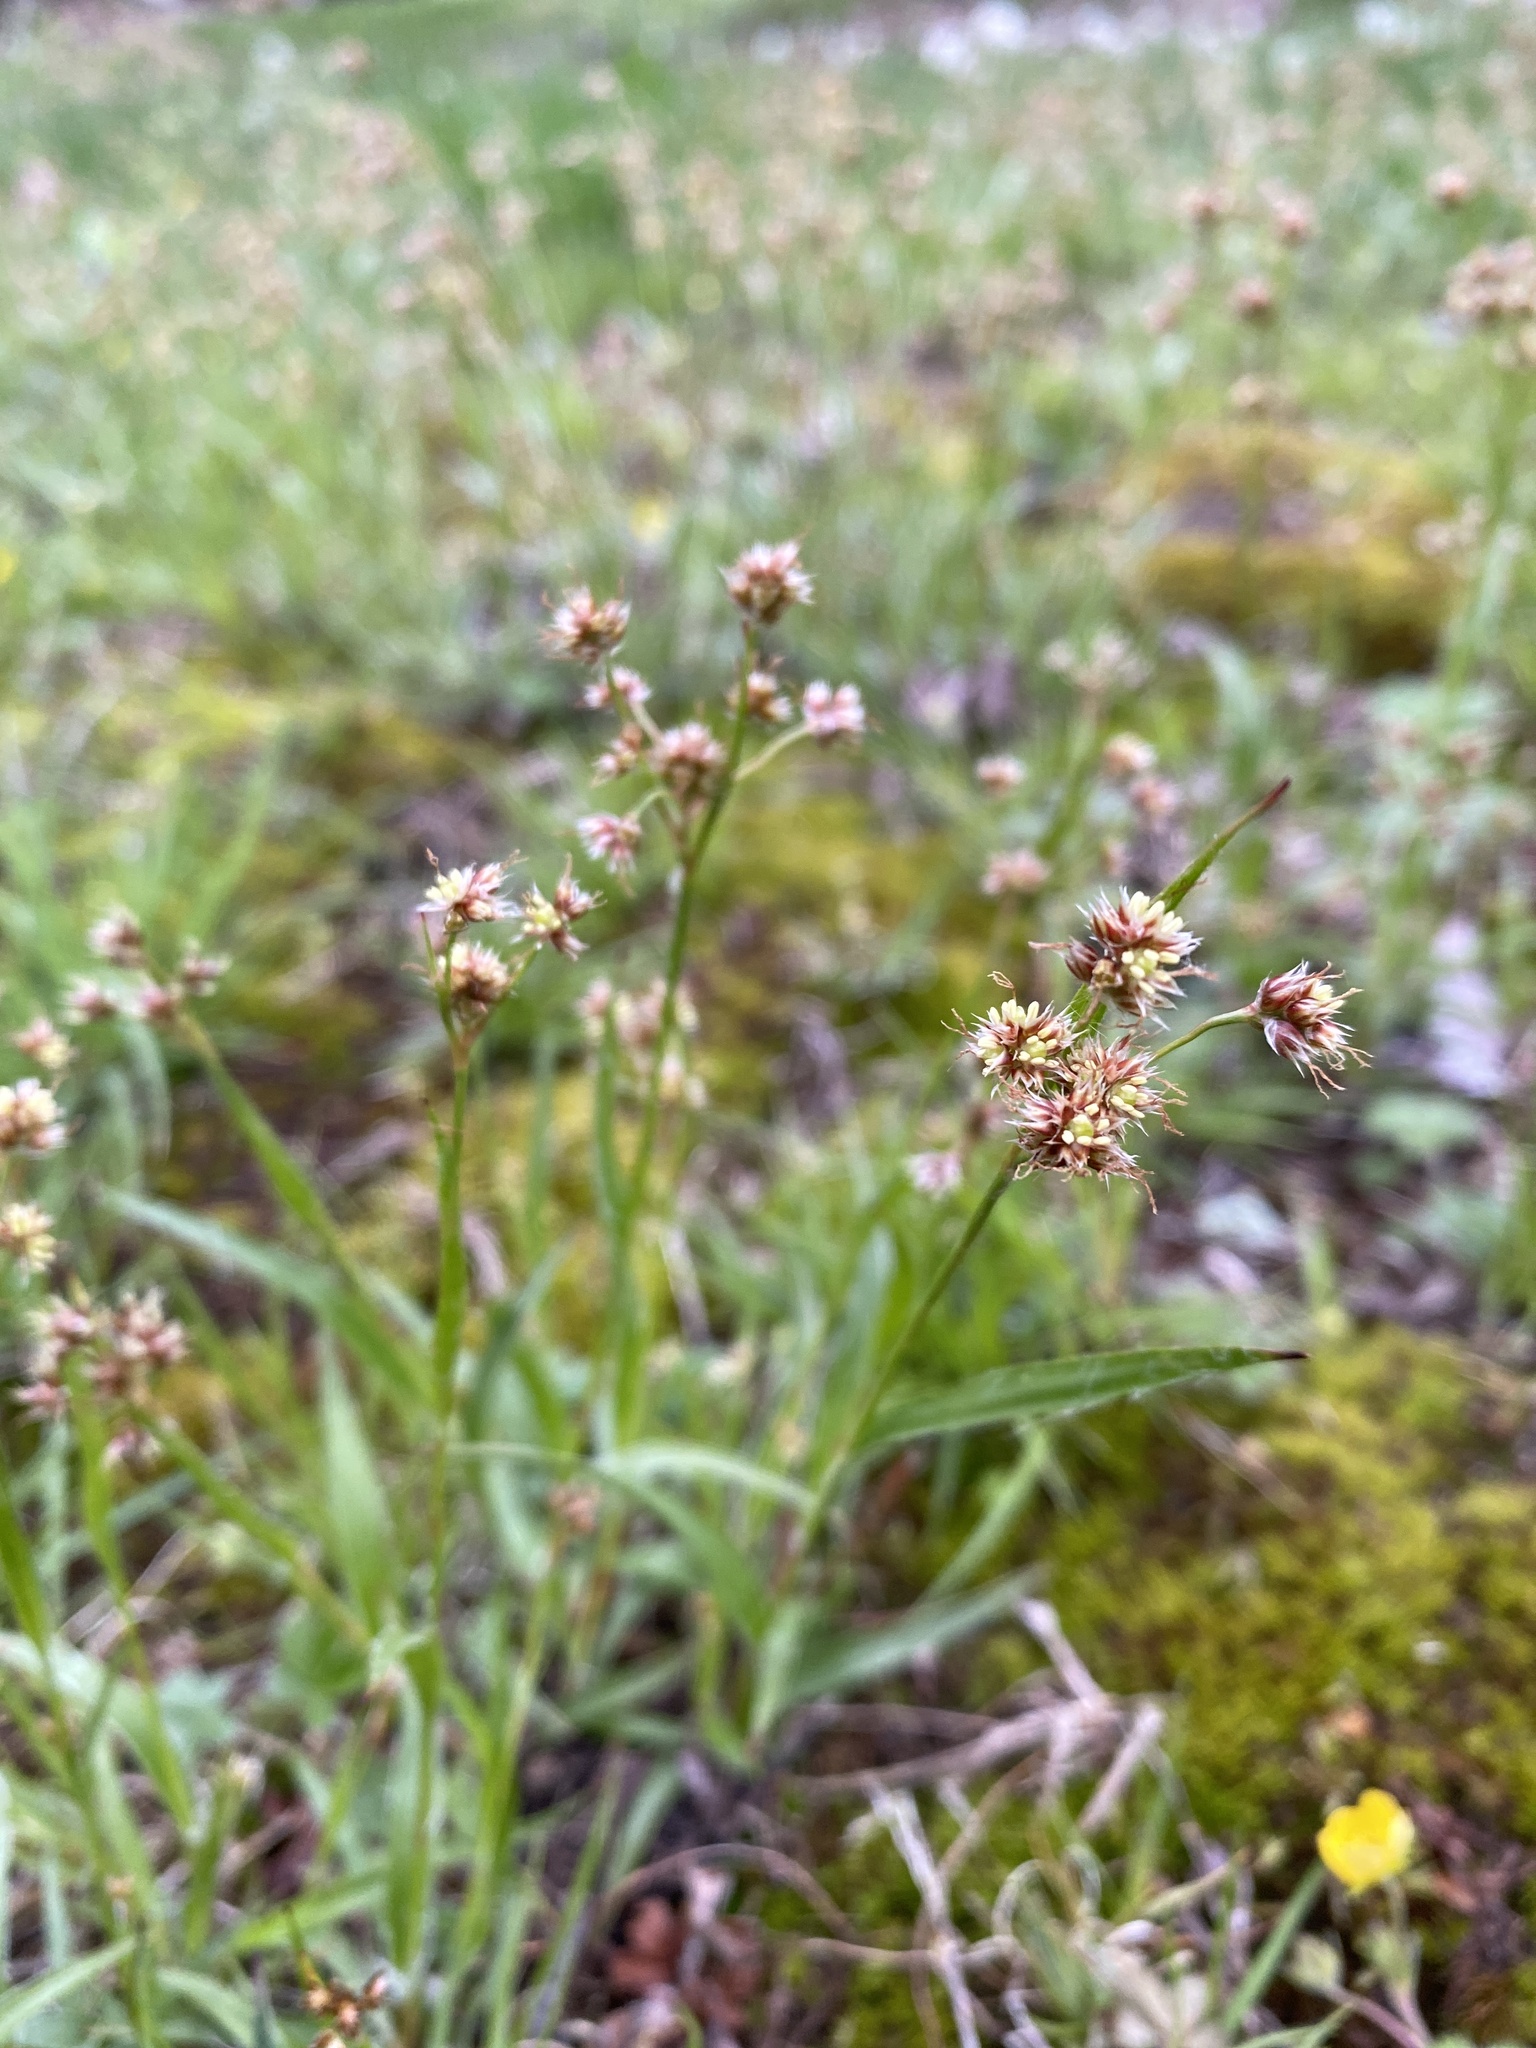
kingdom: Plantae
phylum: Tracheophyta
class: Liliopsida
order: Poales
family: Juncaceae
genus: Luzula
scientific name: Luzula multiflora
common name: Heath wood-rush
